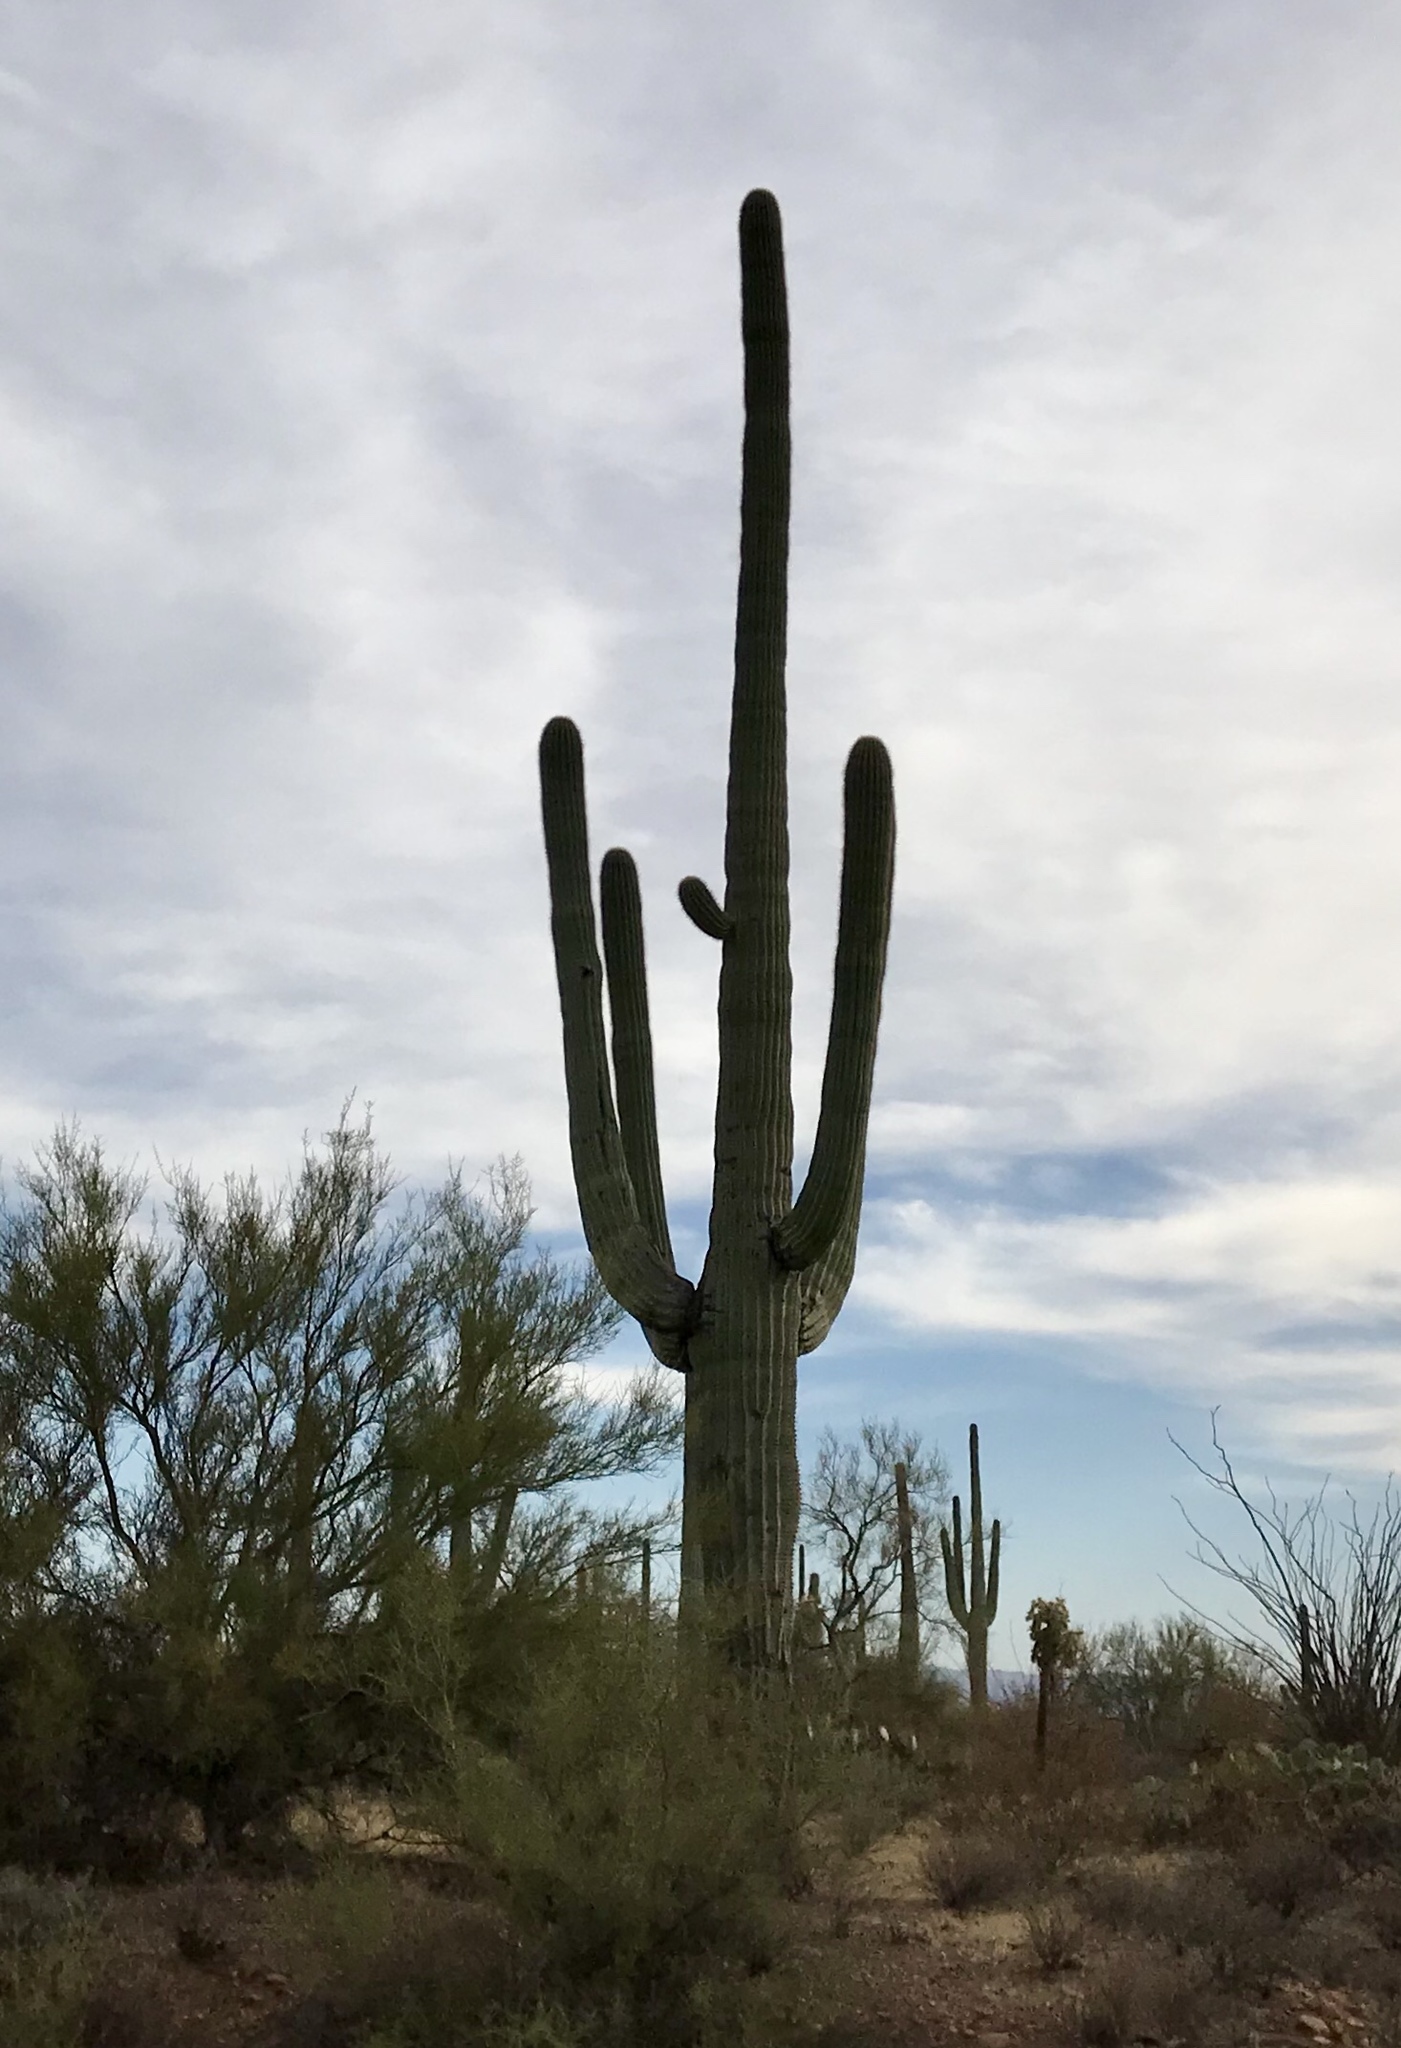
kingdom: Plantae
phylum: Tracheophyta
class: Magnoliopsida
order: Caryophyllales
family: Cactaceae
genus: Carnegiea
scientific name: Carnegiea gigantea
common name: Saguaro
